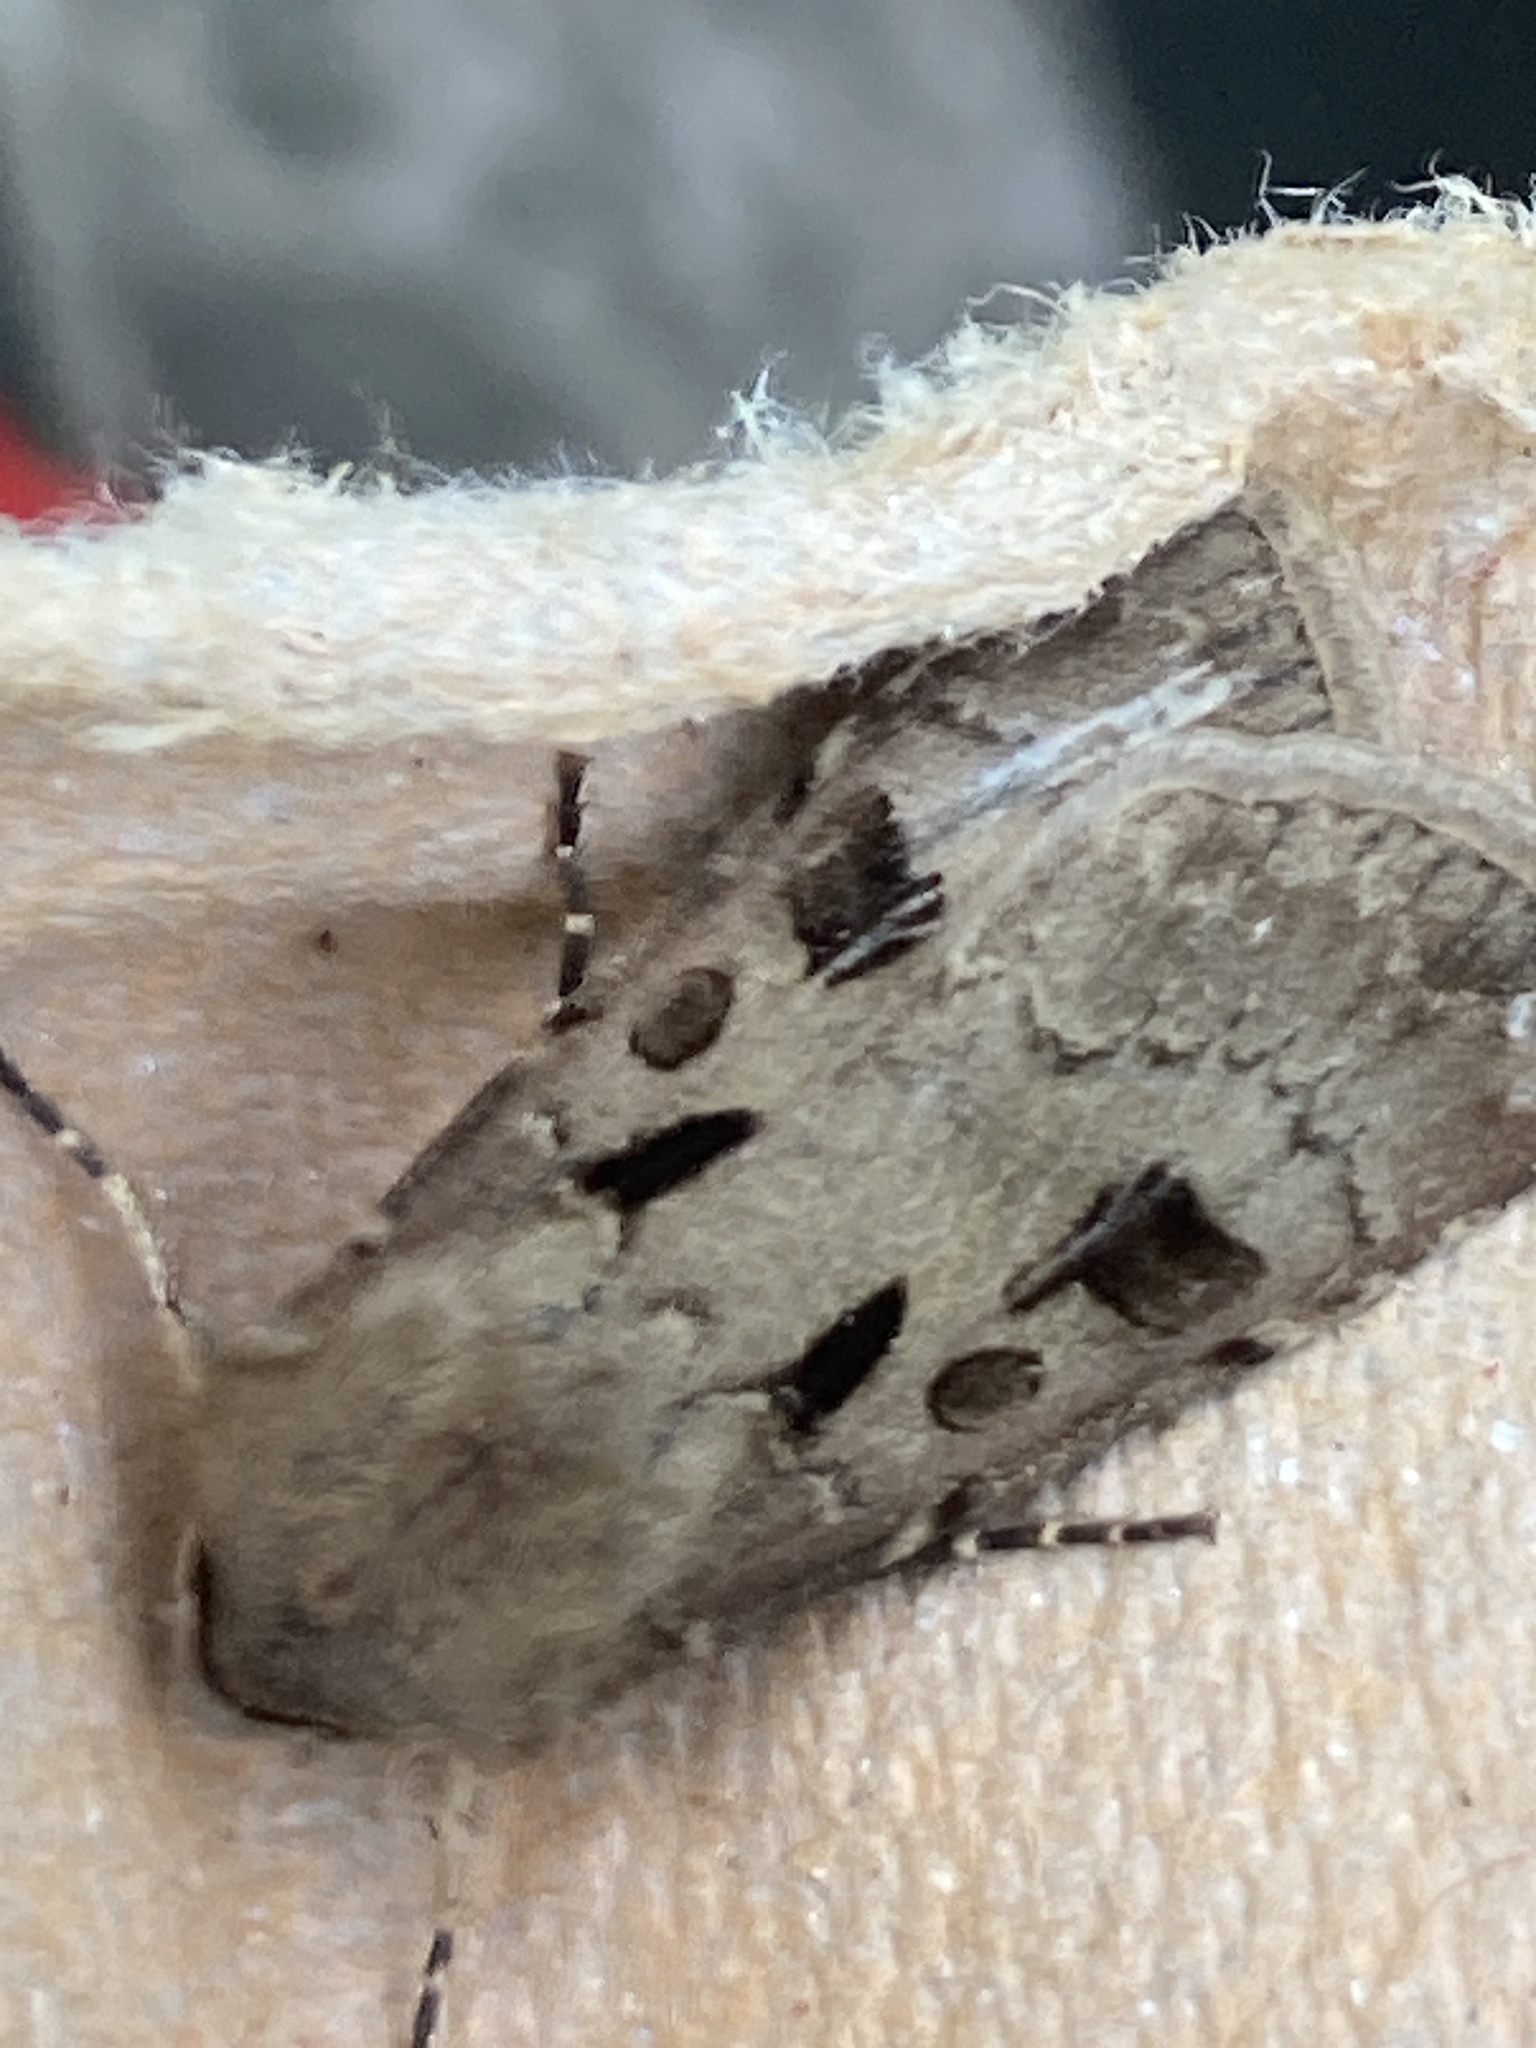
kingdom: Animalia
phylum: Arthropoda
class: Insecta
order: Lepidoptera
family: Noctuidae
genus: Agrotis
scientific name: Agrotis exclamationis
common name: Heart and dart
